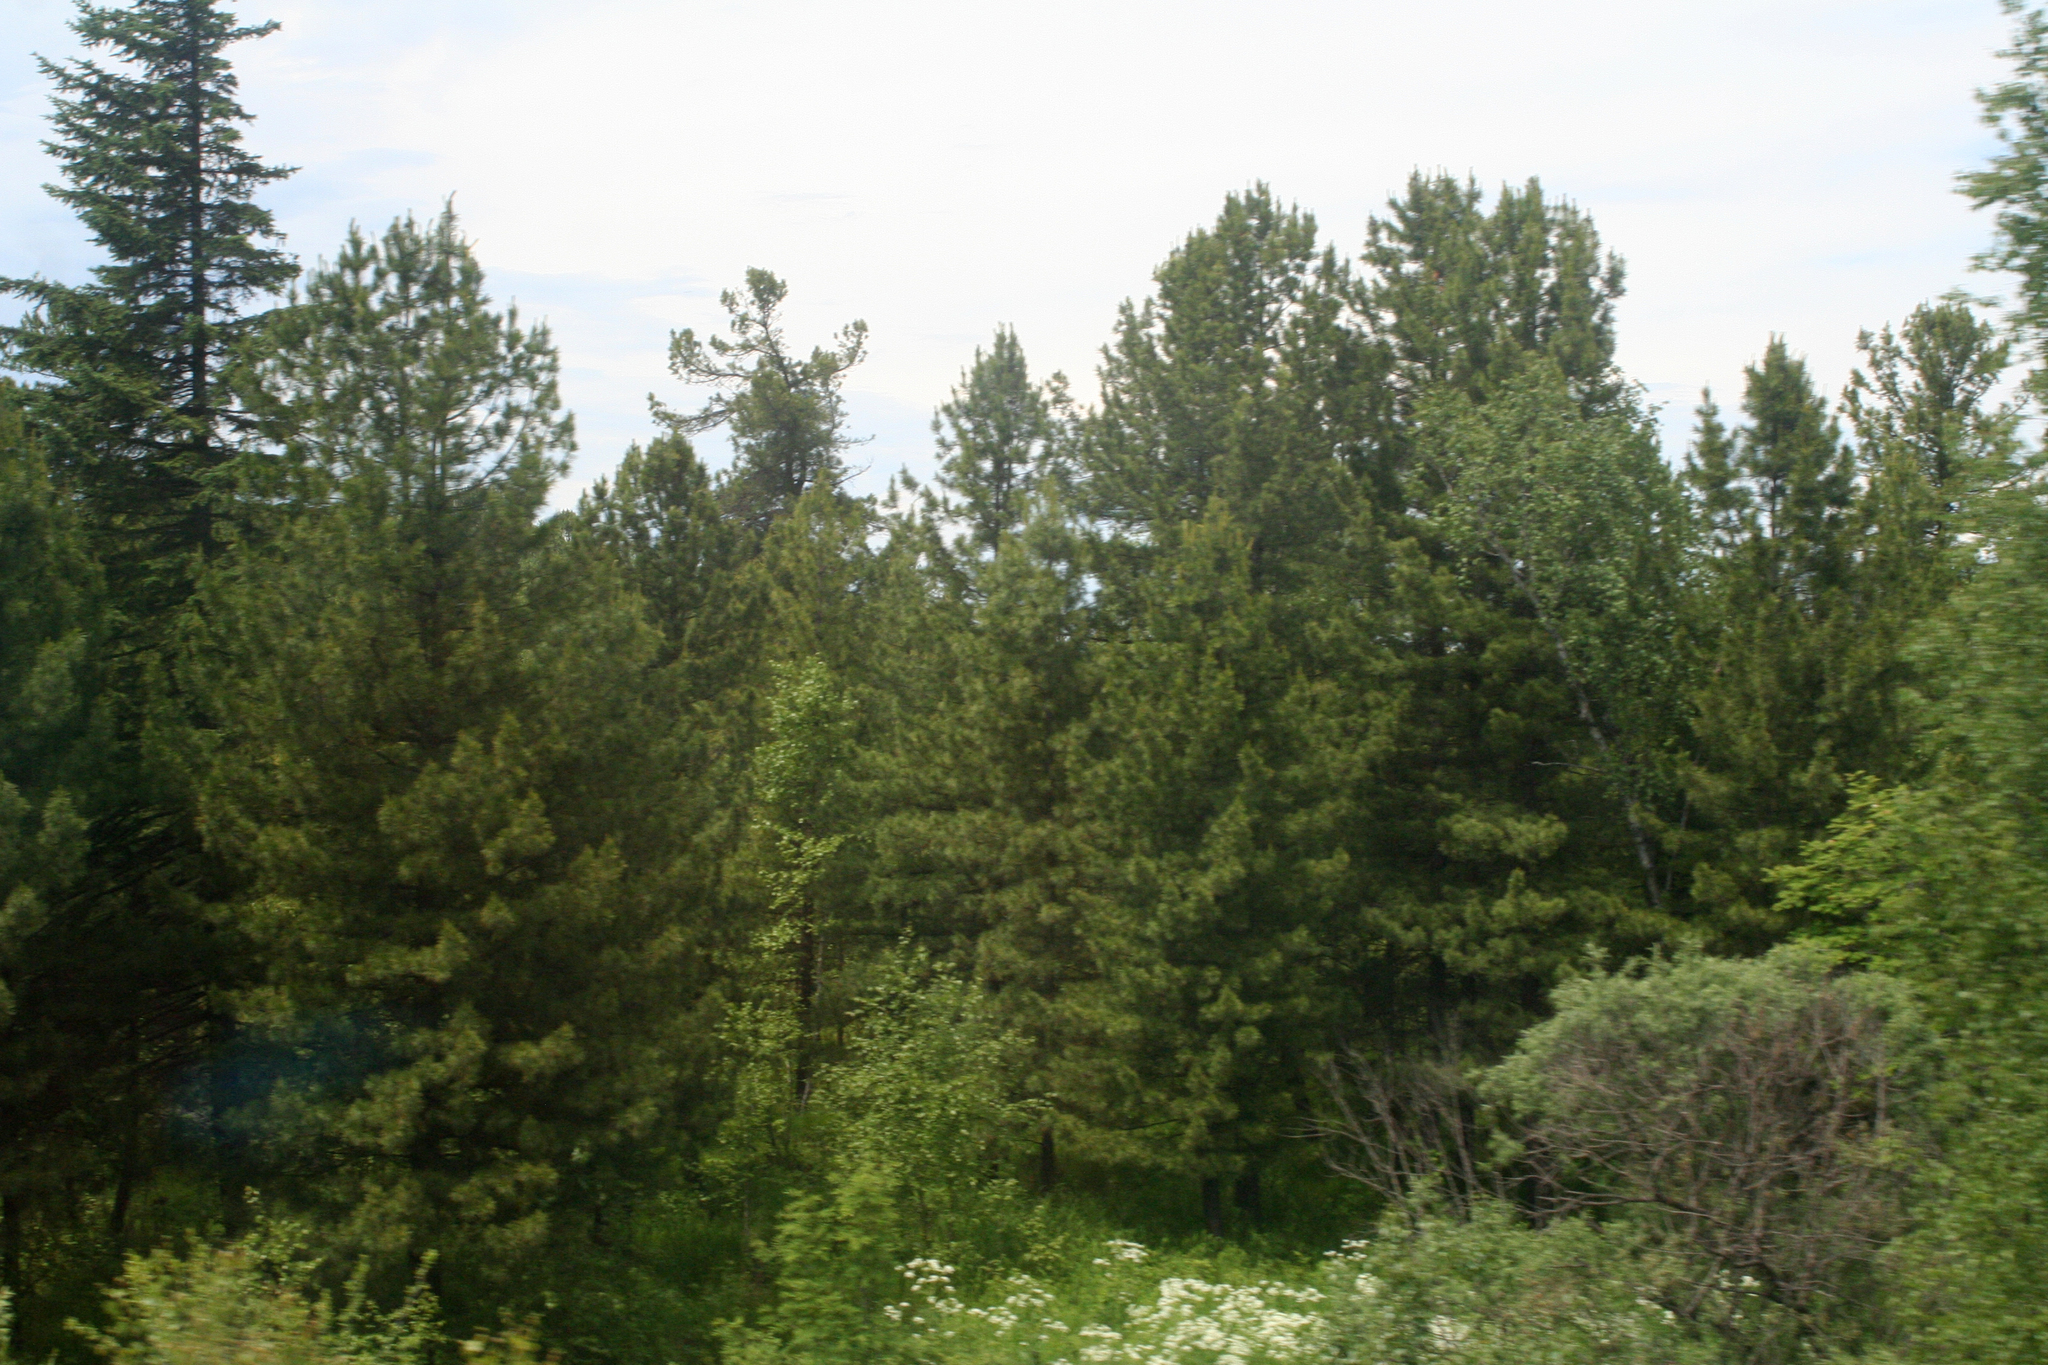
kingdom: Plantae
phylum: Tracheophyta
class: Pinopsida
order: Pinales
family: Pinaceae
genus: Pinus
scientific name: Pinus sibirica
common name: Siberian pine
